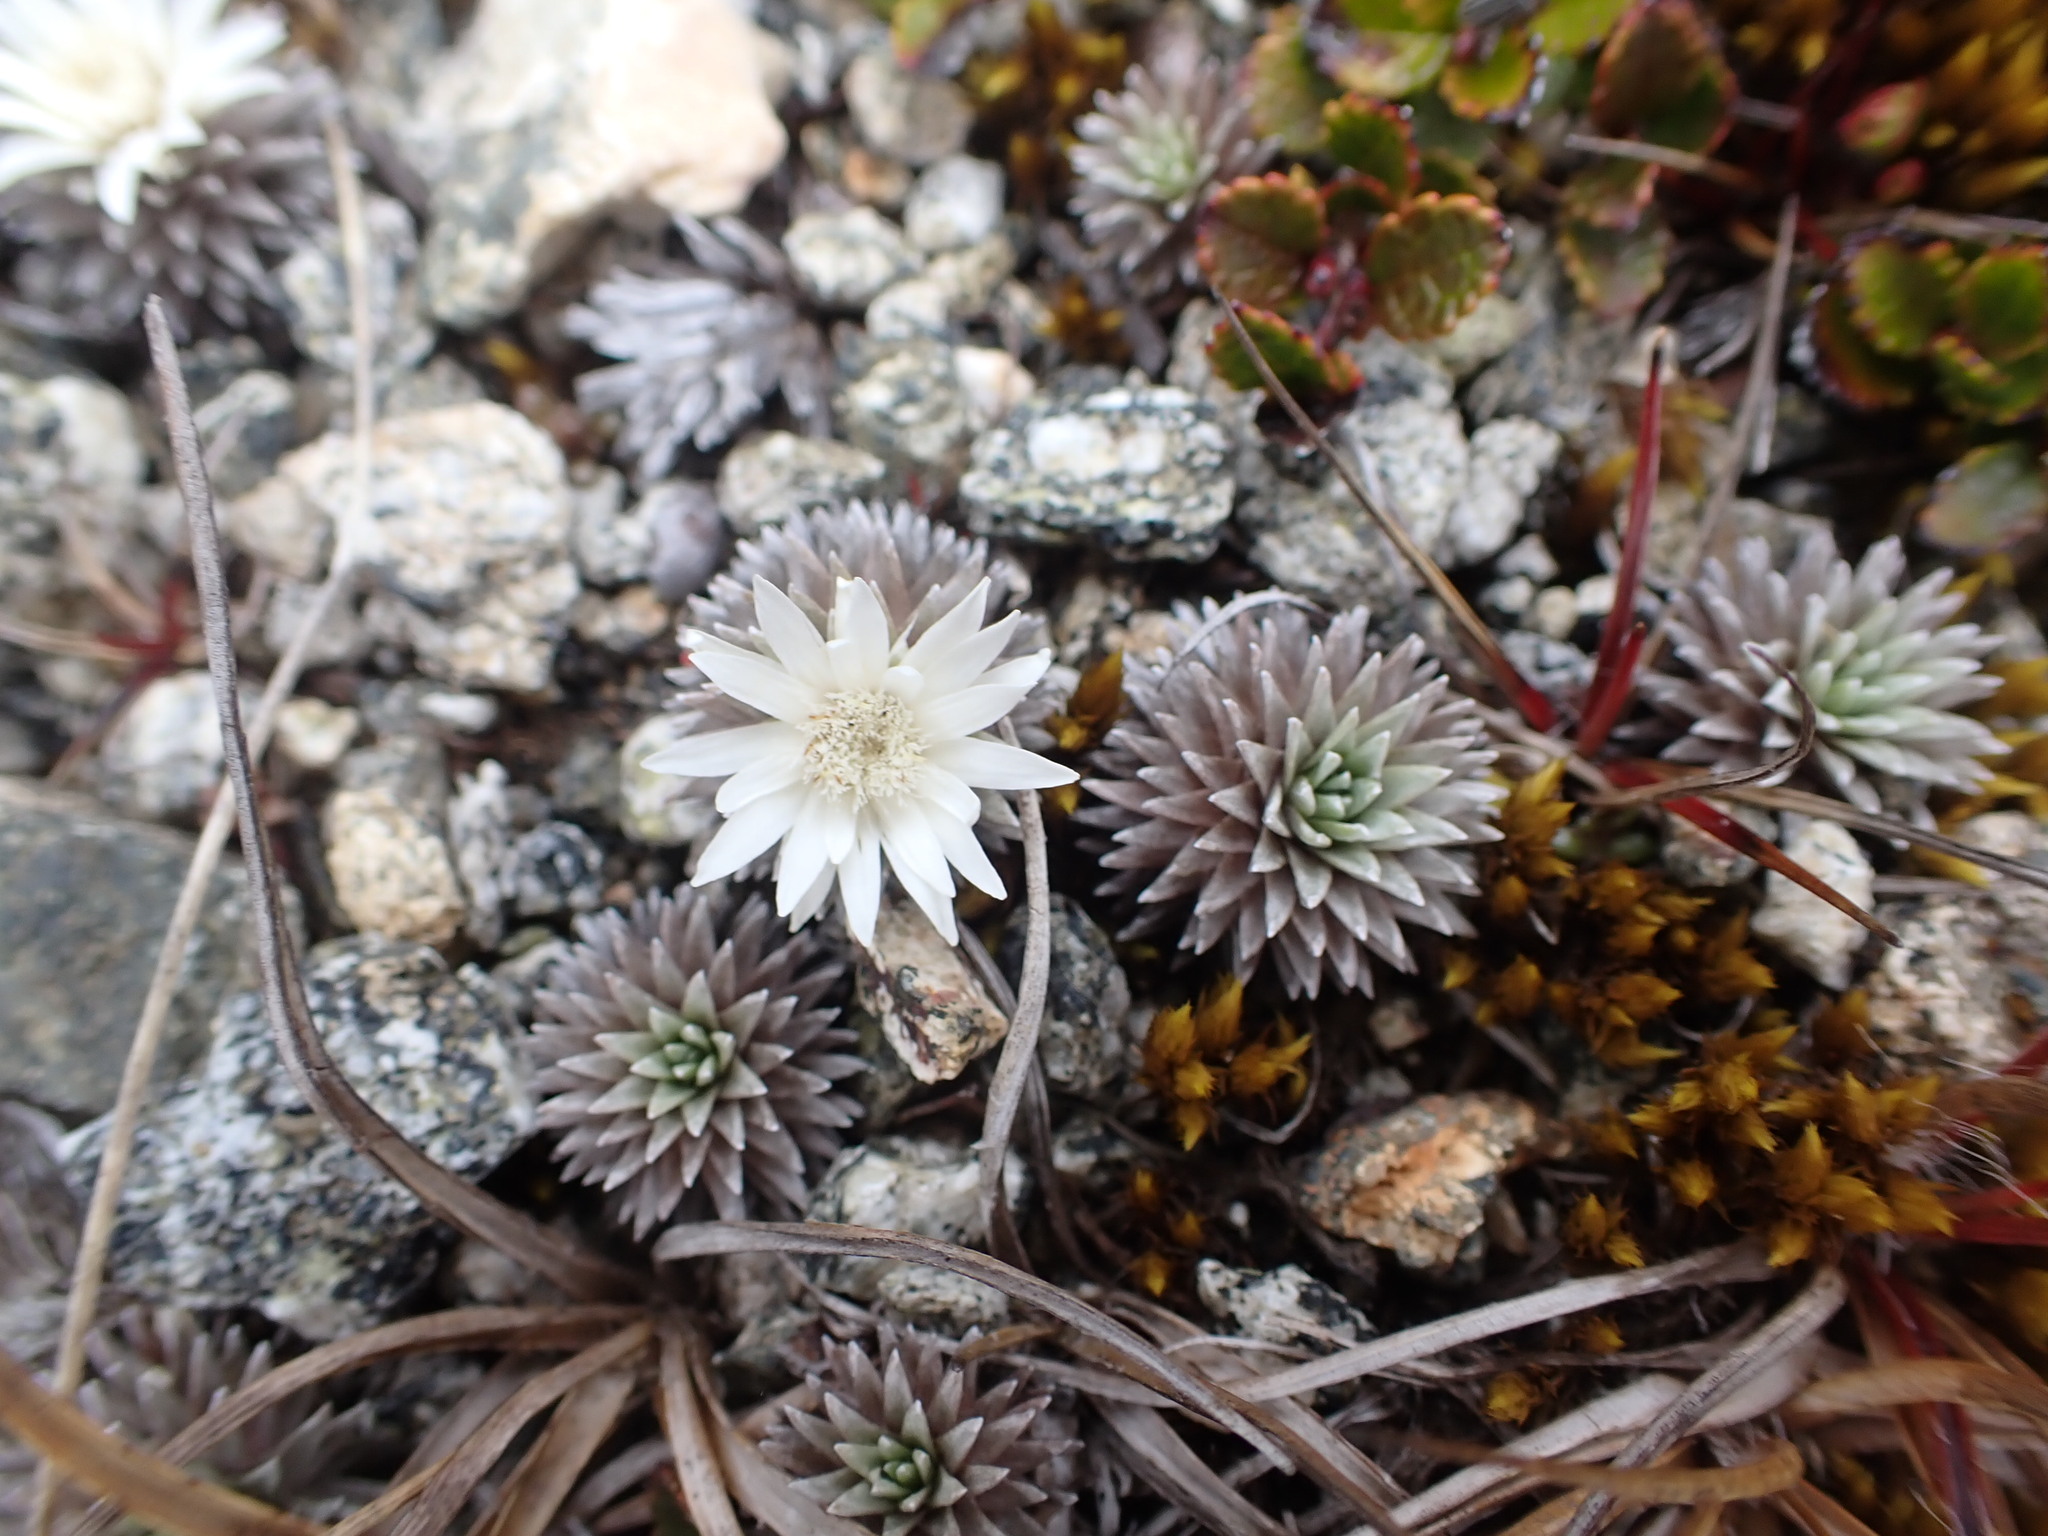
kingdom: Plantae
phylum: Tracheophyta
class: Magnoliopsida
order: Asterales
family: Asteraceae
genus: Raoulia
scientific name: Raoulia grandiflora
